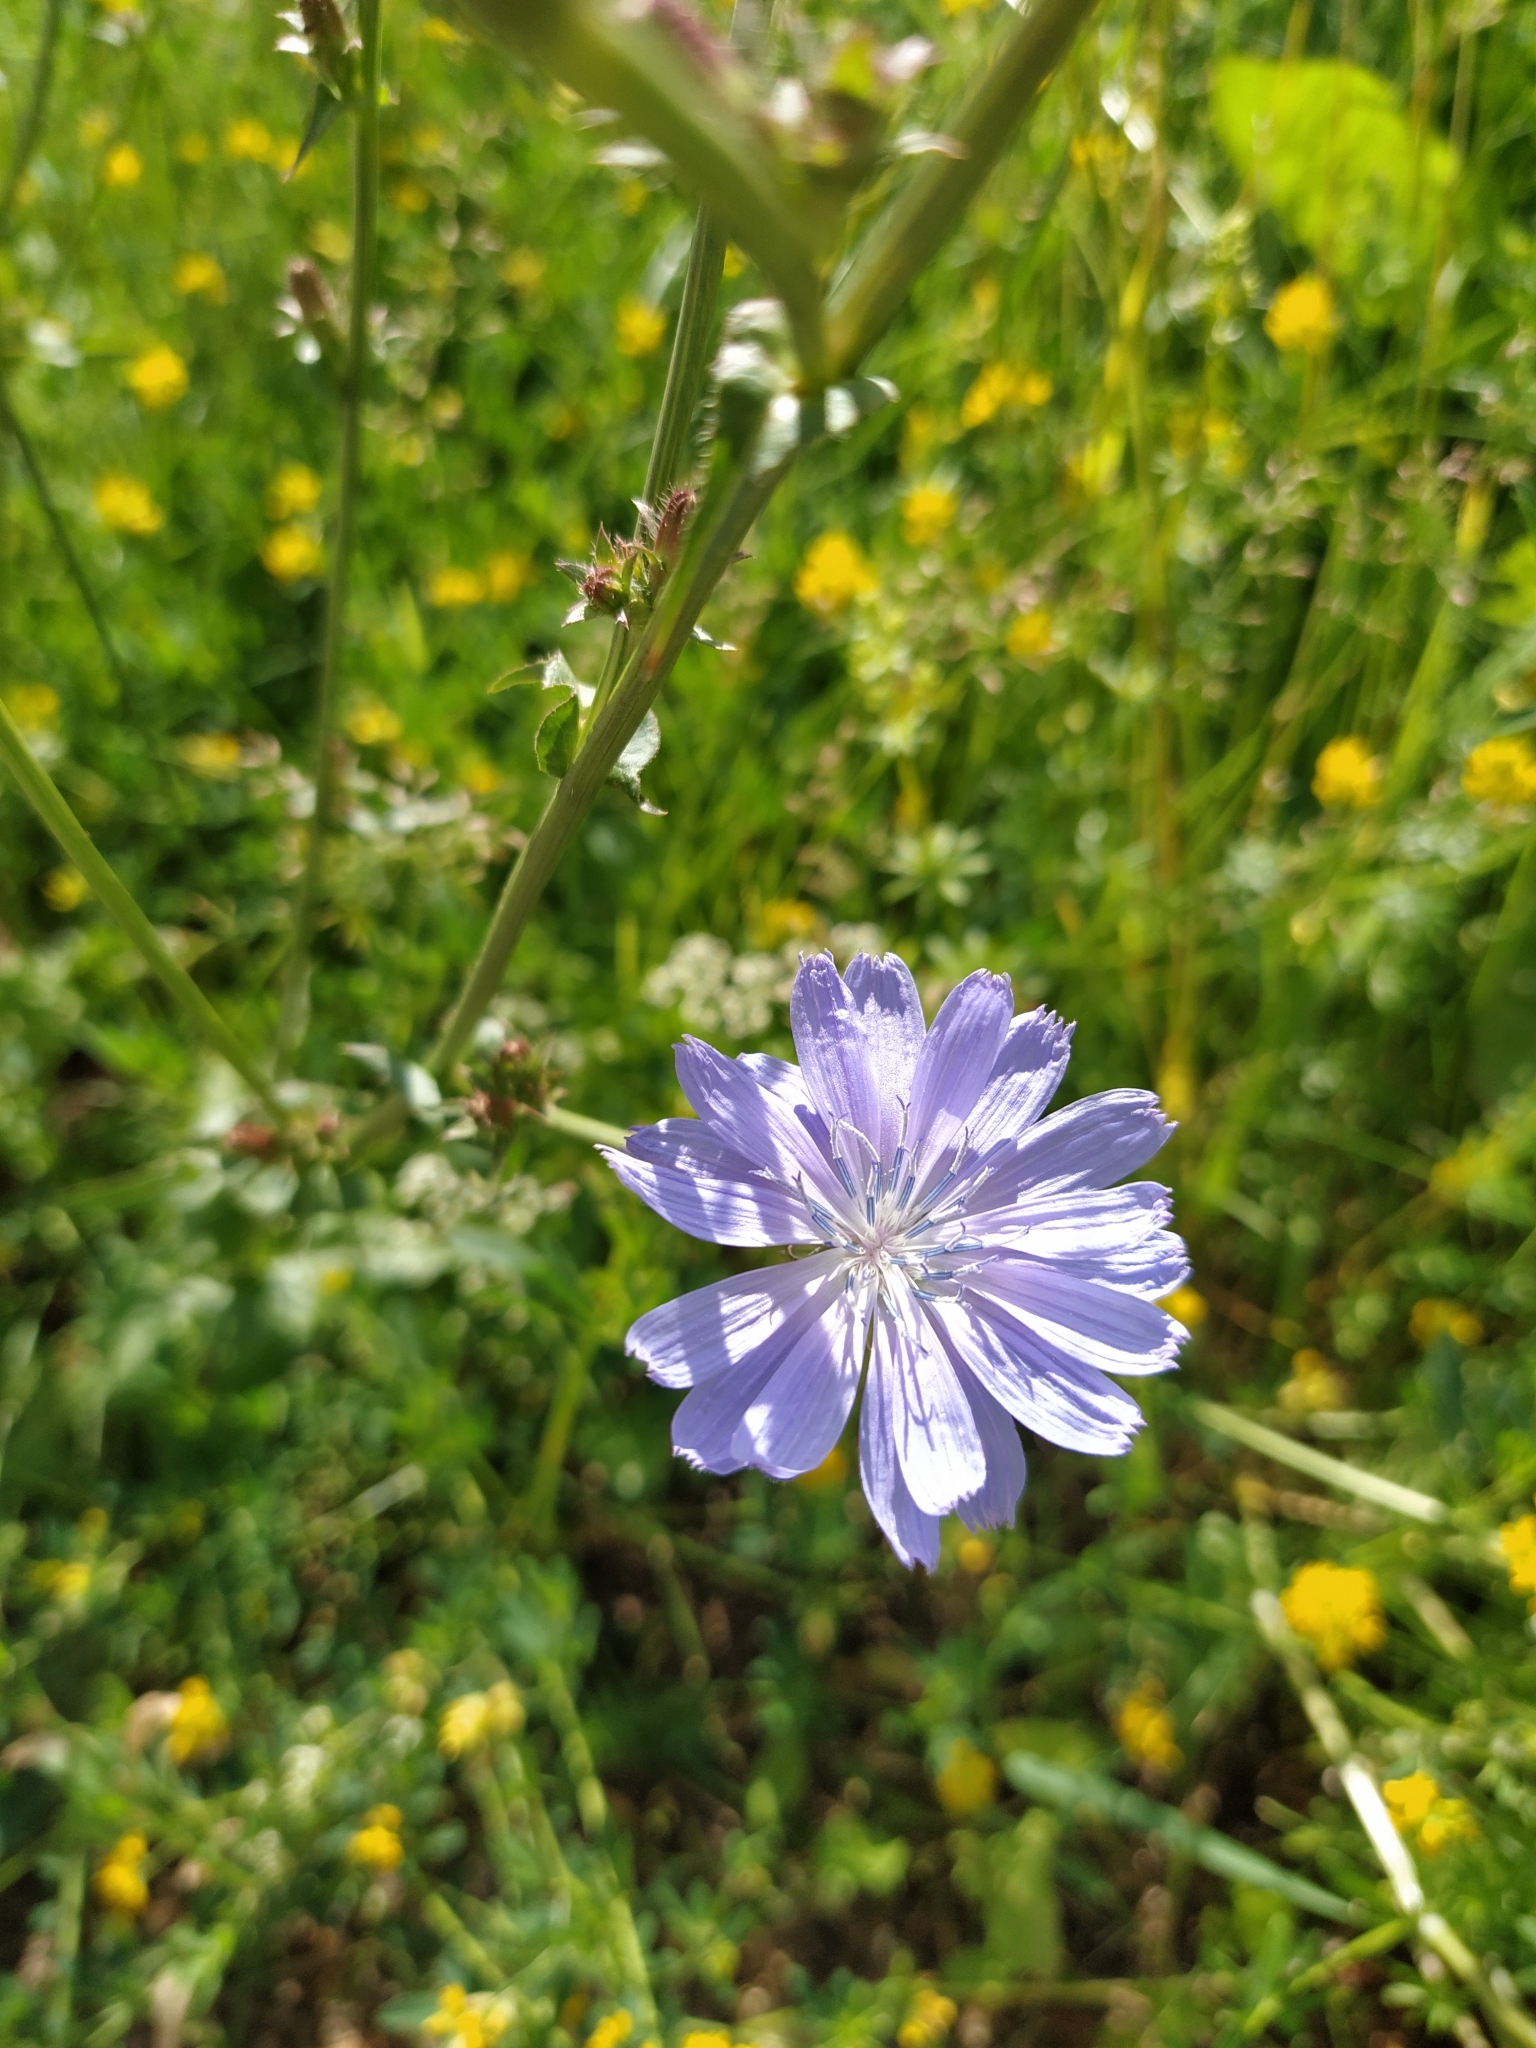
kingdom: Plantae
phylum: Tracheophyta
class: Magnoliopsida
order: Asterales
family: Asteraceae
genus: Cichorium
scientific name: Cichorium intybus
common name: Chicory
